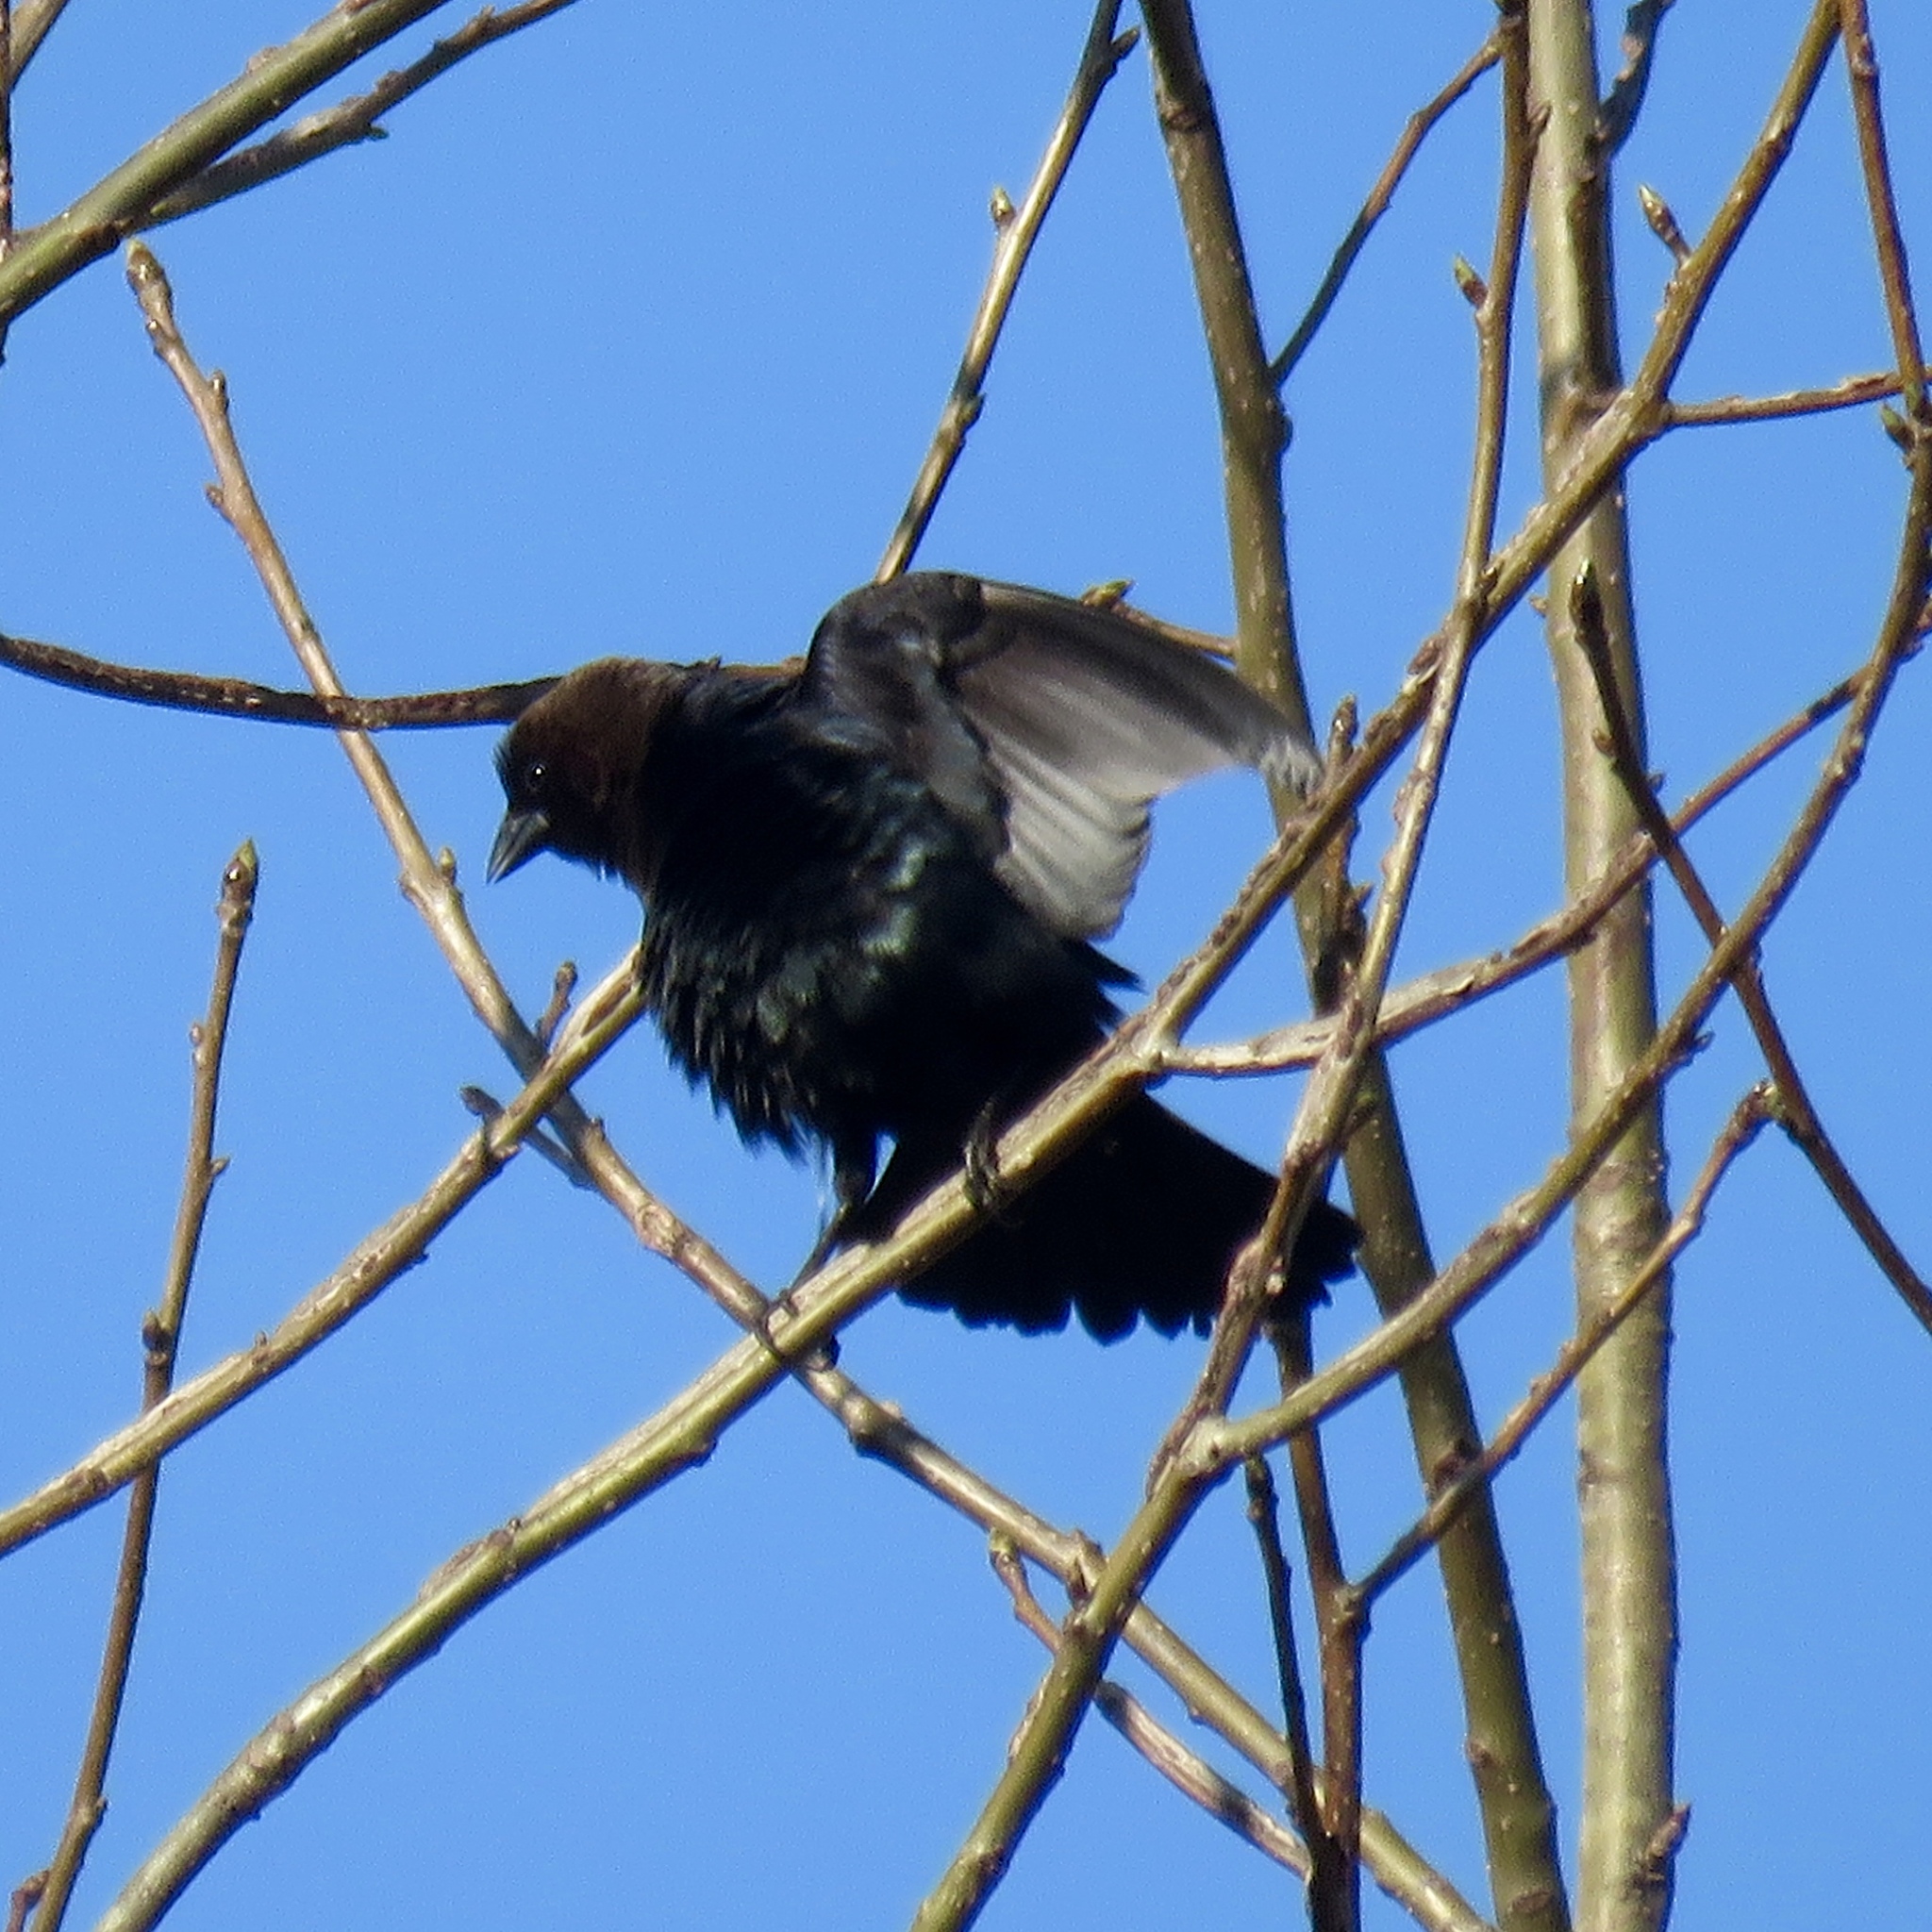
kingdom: Animalia
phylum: Chordata
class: Aves
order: Passeriformes
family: Icteridae
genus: Molothrus
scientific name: Molothrus ater
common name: Brown-headed cowbird
